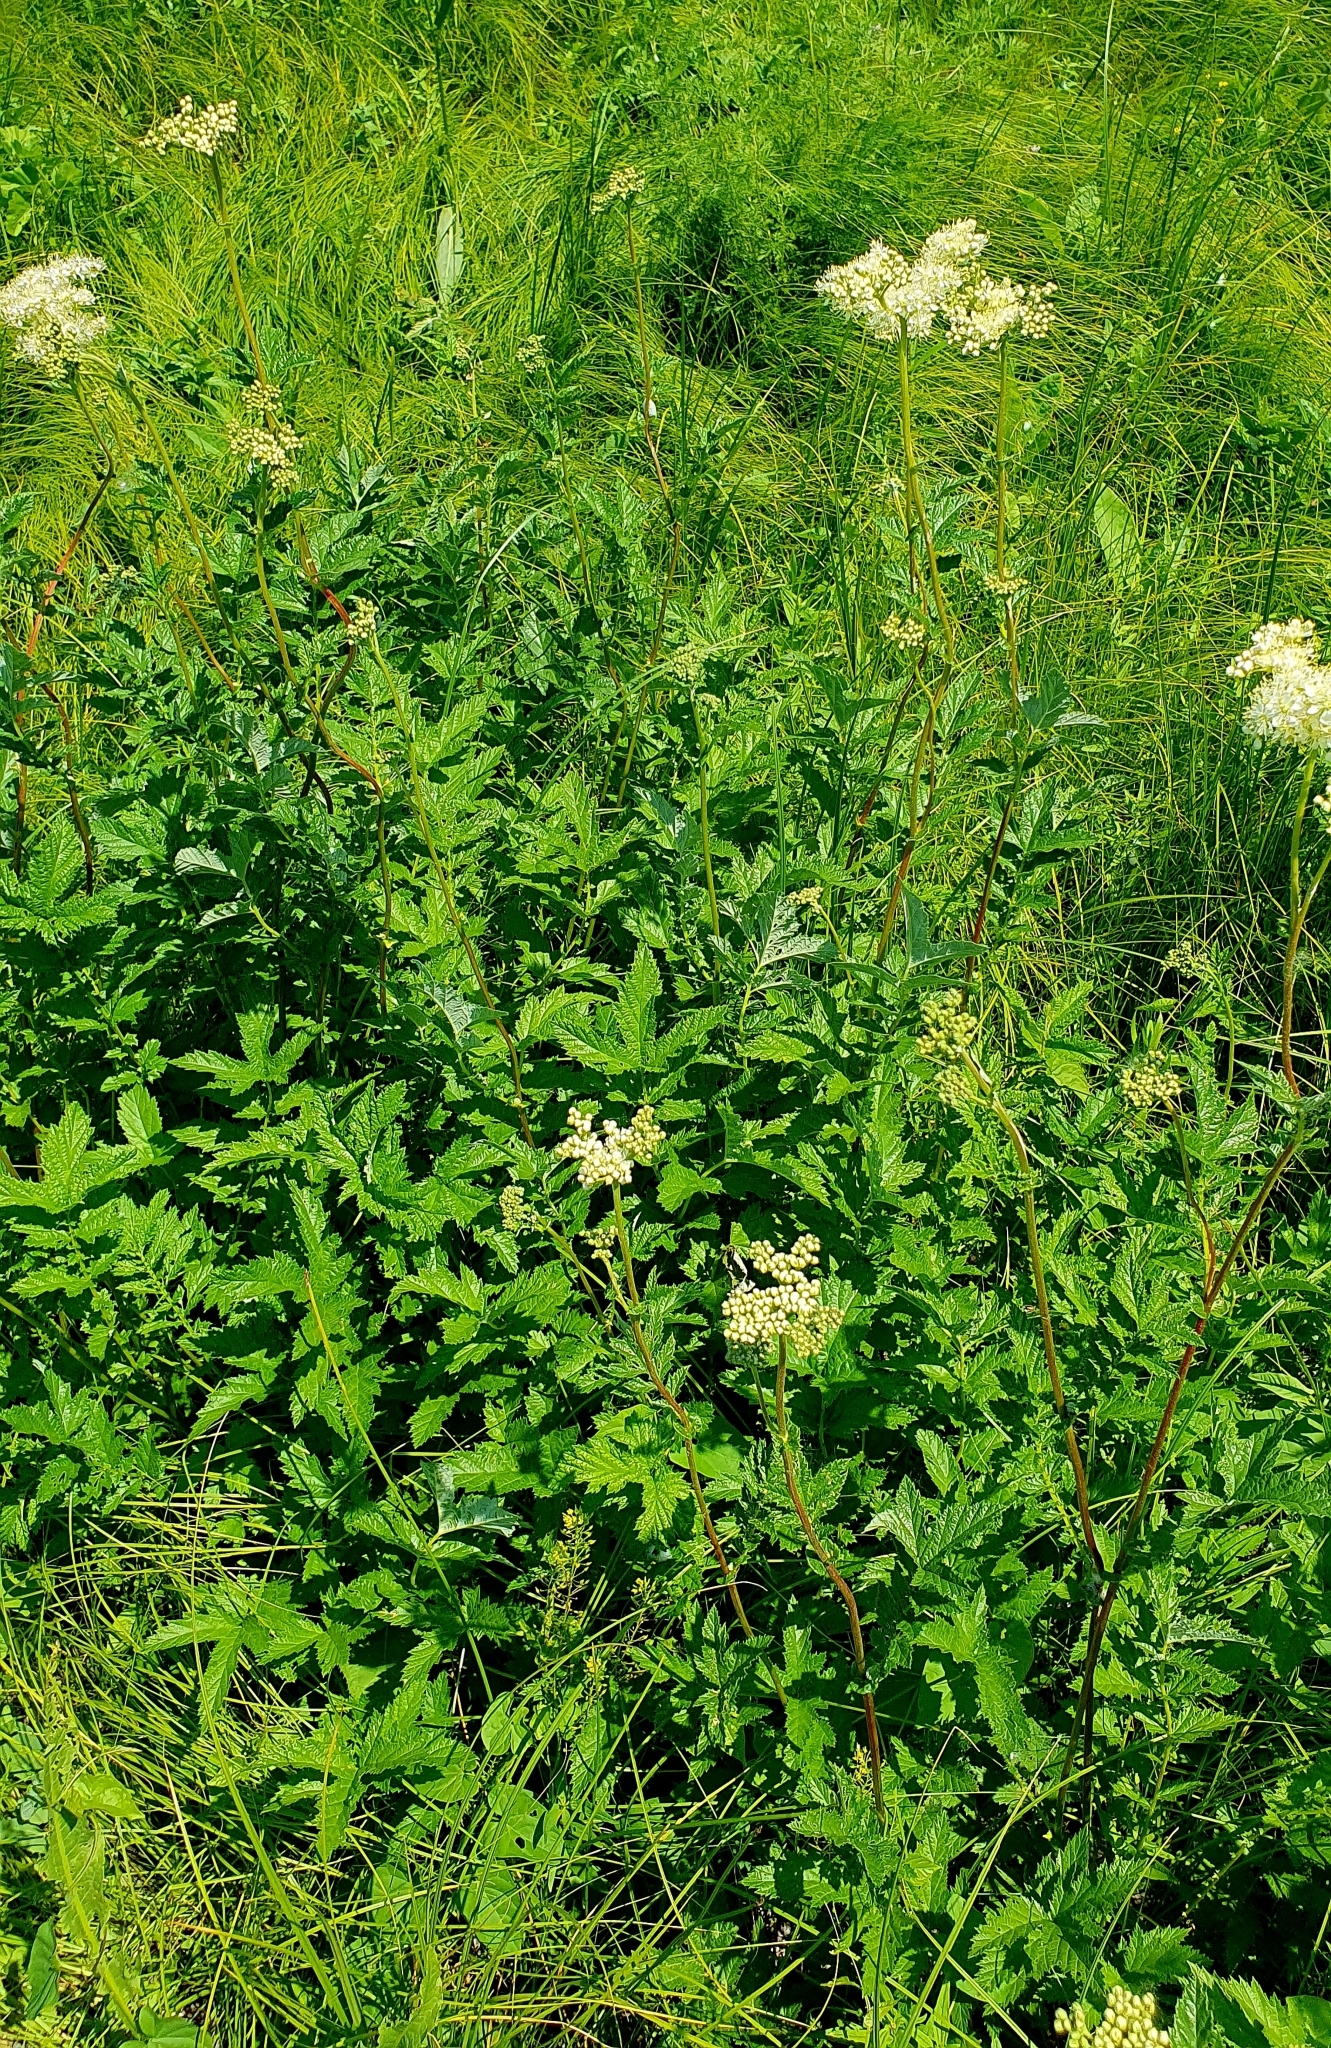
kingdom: Plantae
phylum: Tracheophyta
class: Magnoliopsida
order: Rosales
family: Rosaceae
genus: Filipendula
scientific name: Filipendula ulmaria
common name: Meadowsweet
